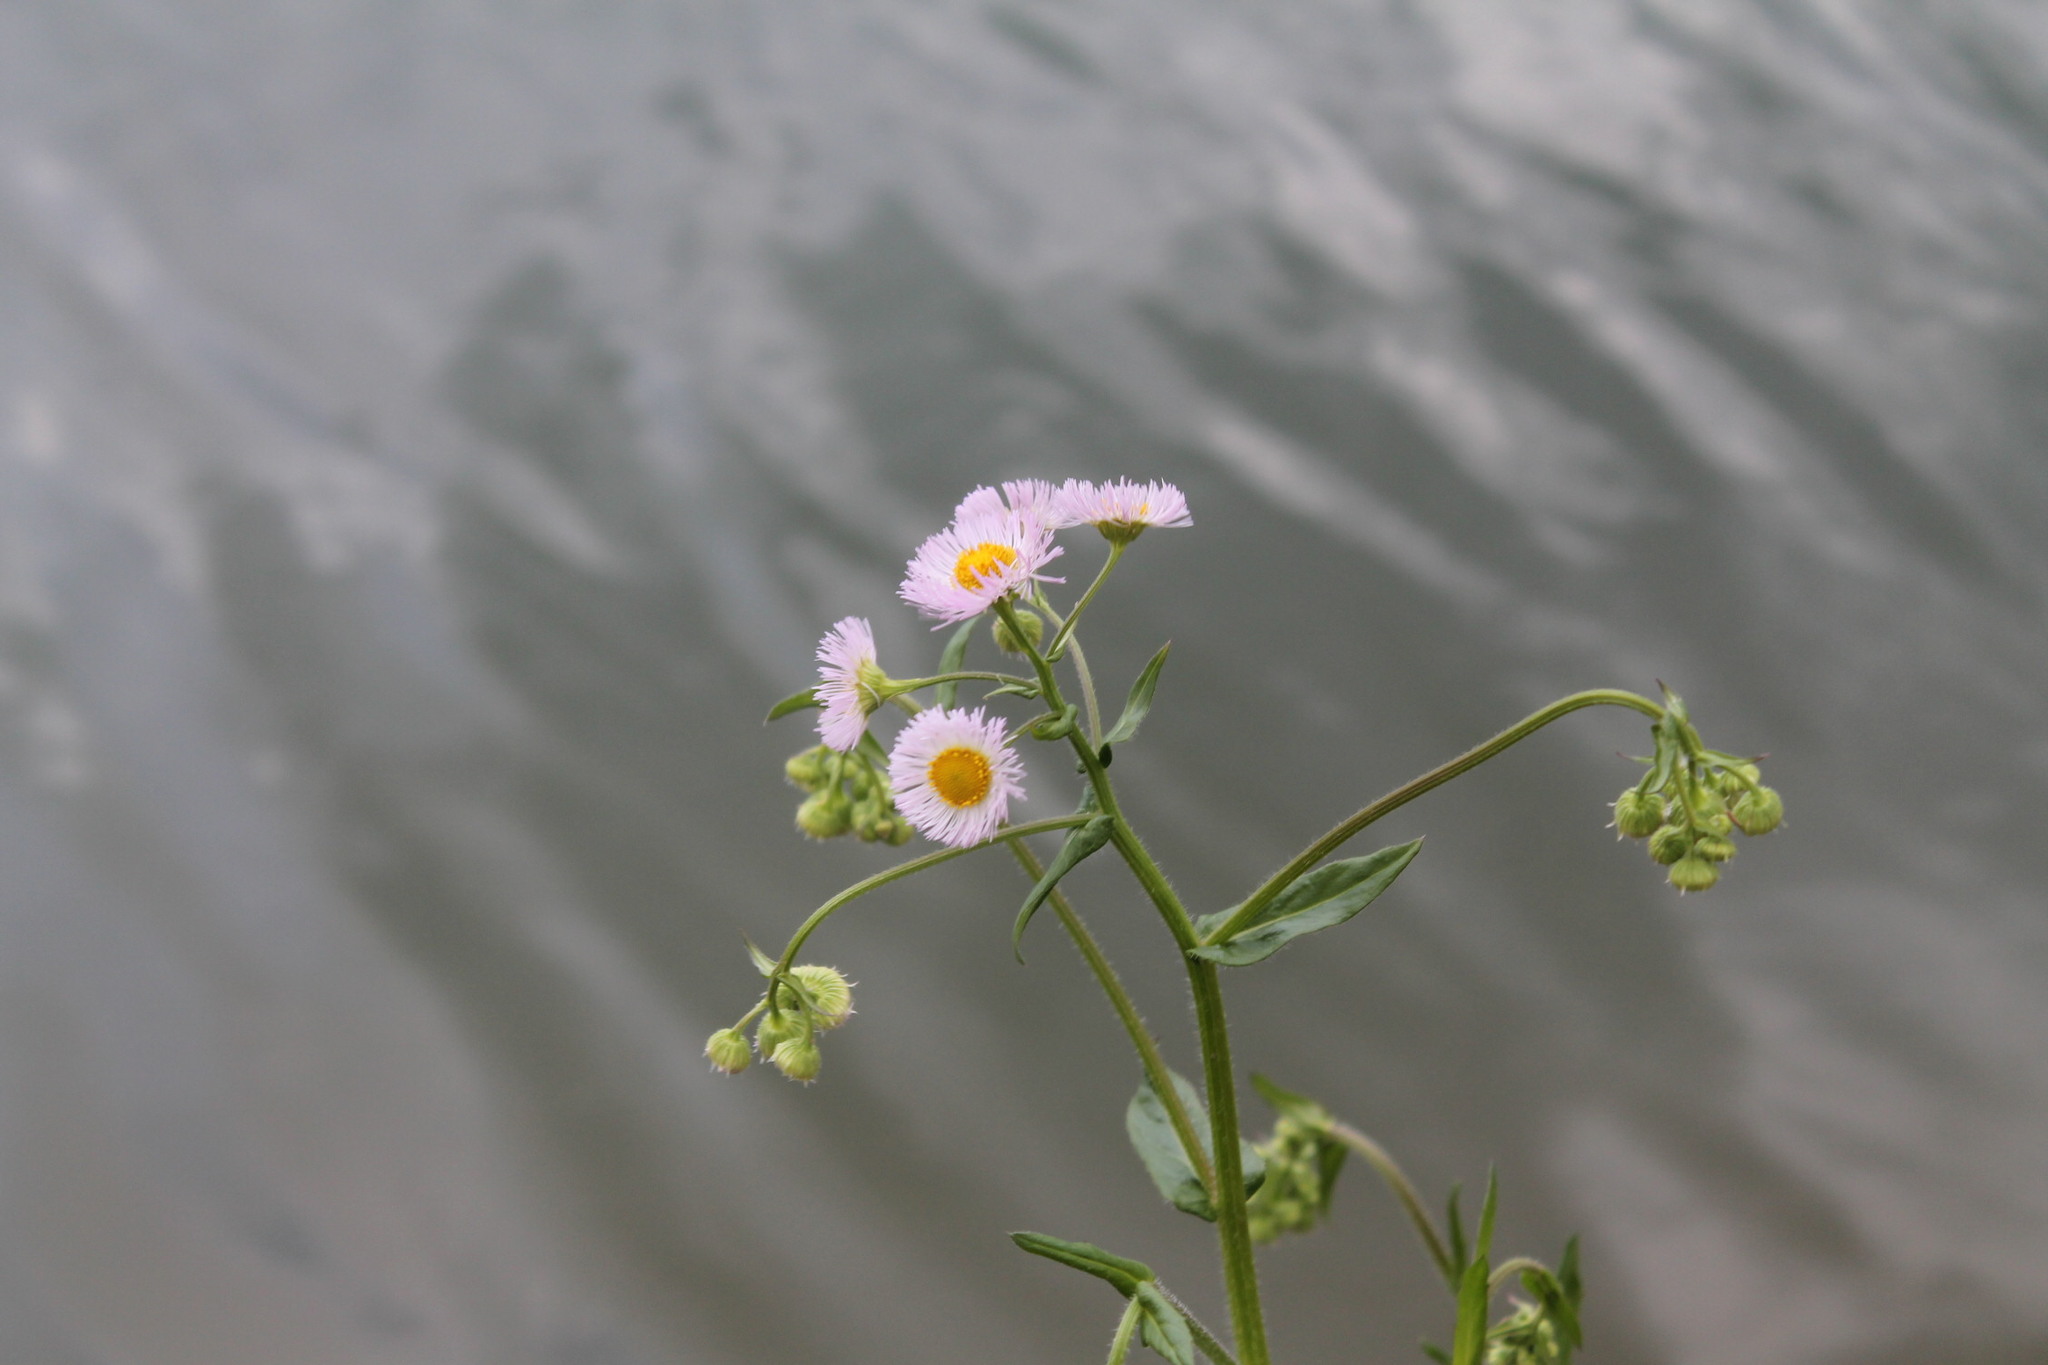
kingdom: Plantae
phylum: Tracheophyta
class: Magnoliopsida
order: Asterales
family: Asteraceae
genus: Erigeron
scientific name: Erigeron philadelphicus
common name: Robin's-plantain
